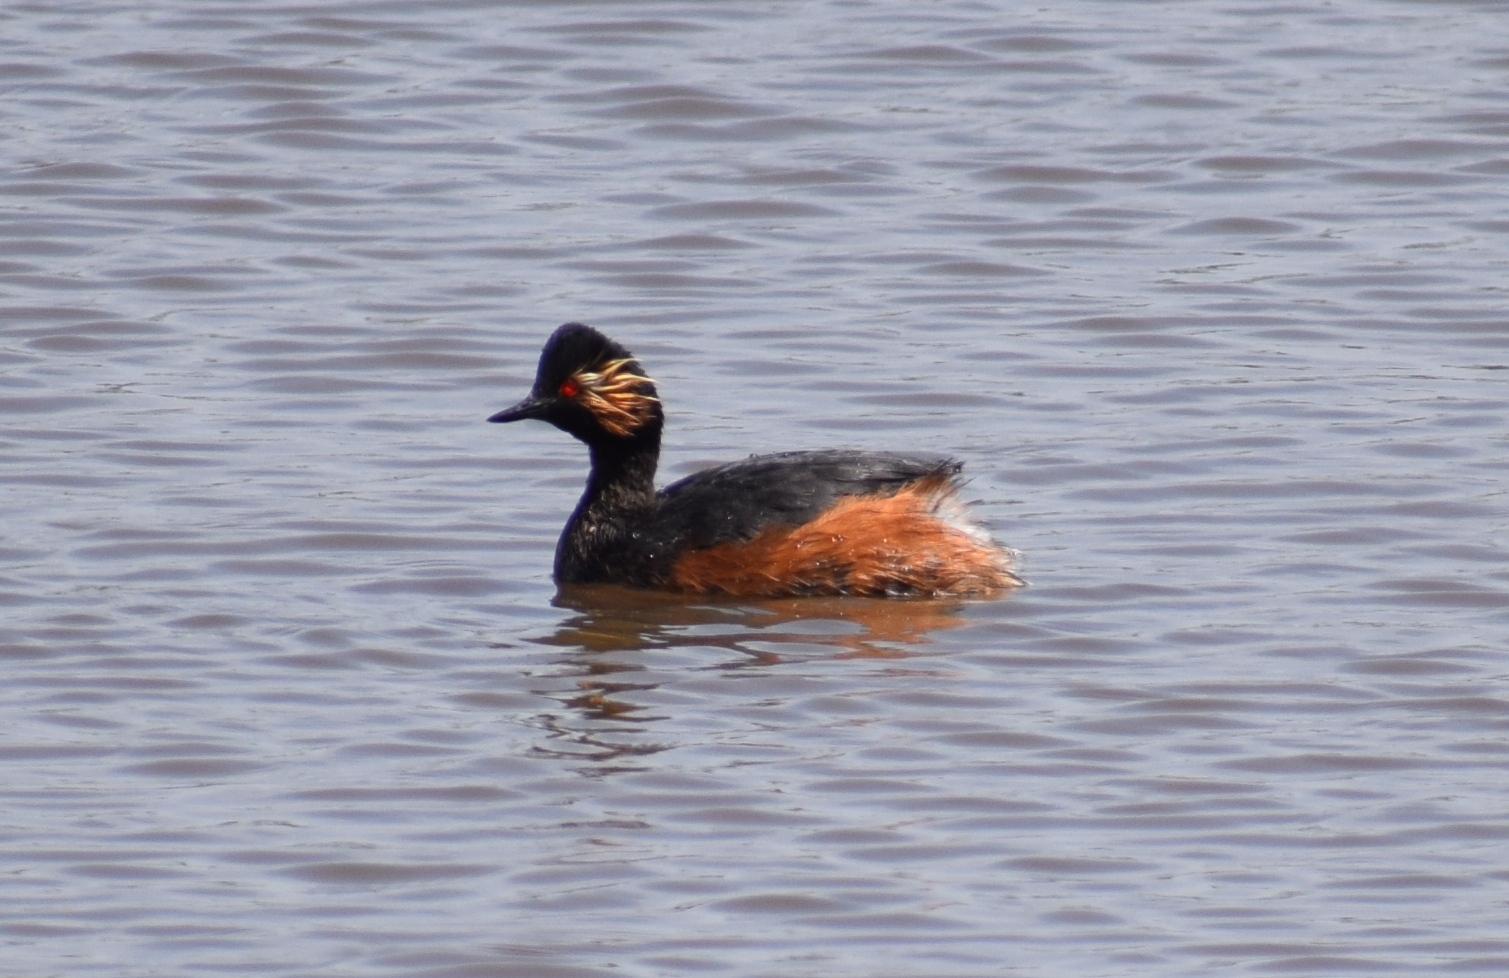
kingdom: Animalia
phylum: Chordata
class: Aves
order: Podicipediformes
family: Podicipedidae
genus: Podiceps
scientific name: Podiceps nigricollis
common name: Black-necked grebe
